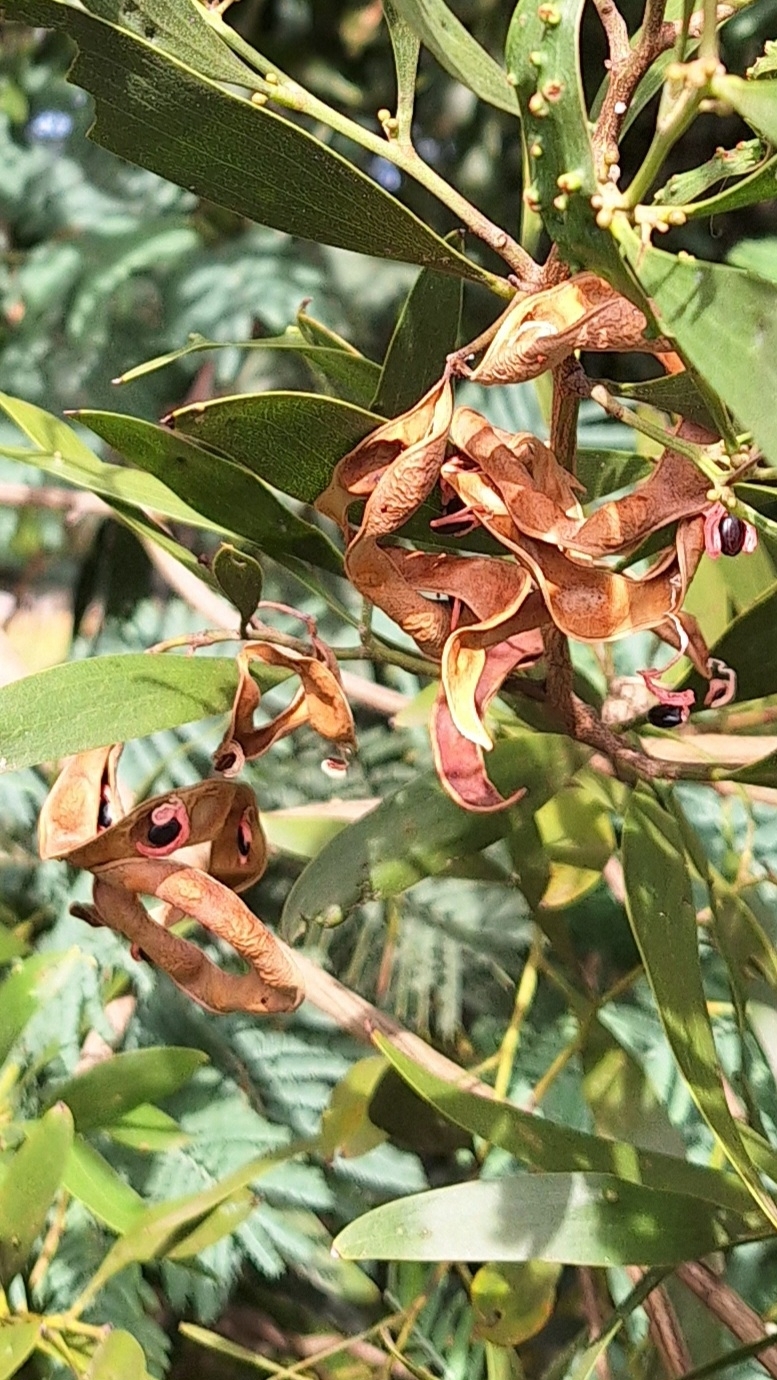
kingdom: Plantae
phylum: Tracheophyta
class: Magnoliopsida
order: Fabales
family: Fabaceae
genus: Acacia
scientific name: Acacia melanoxylon
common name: Blackwood
